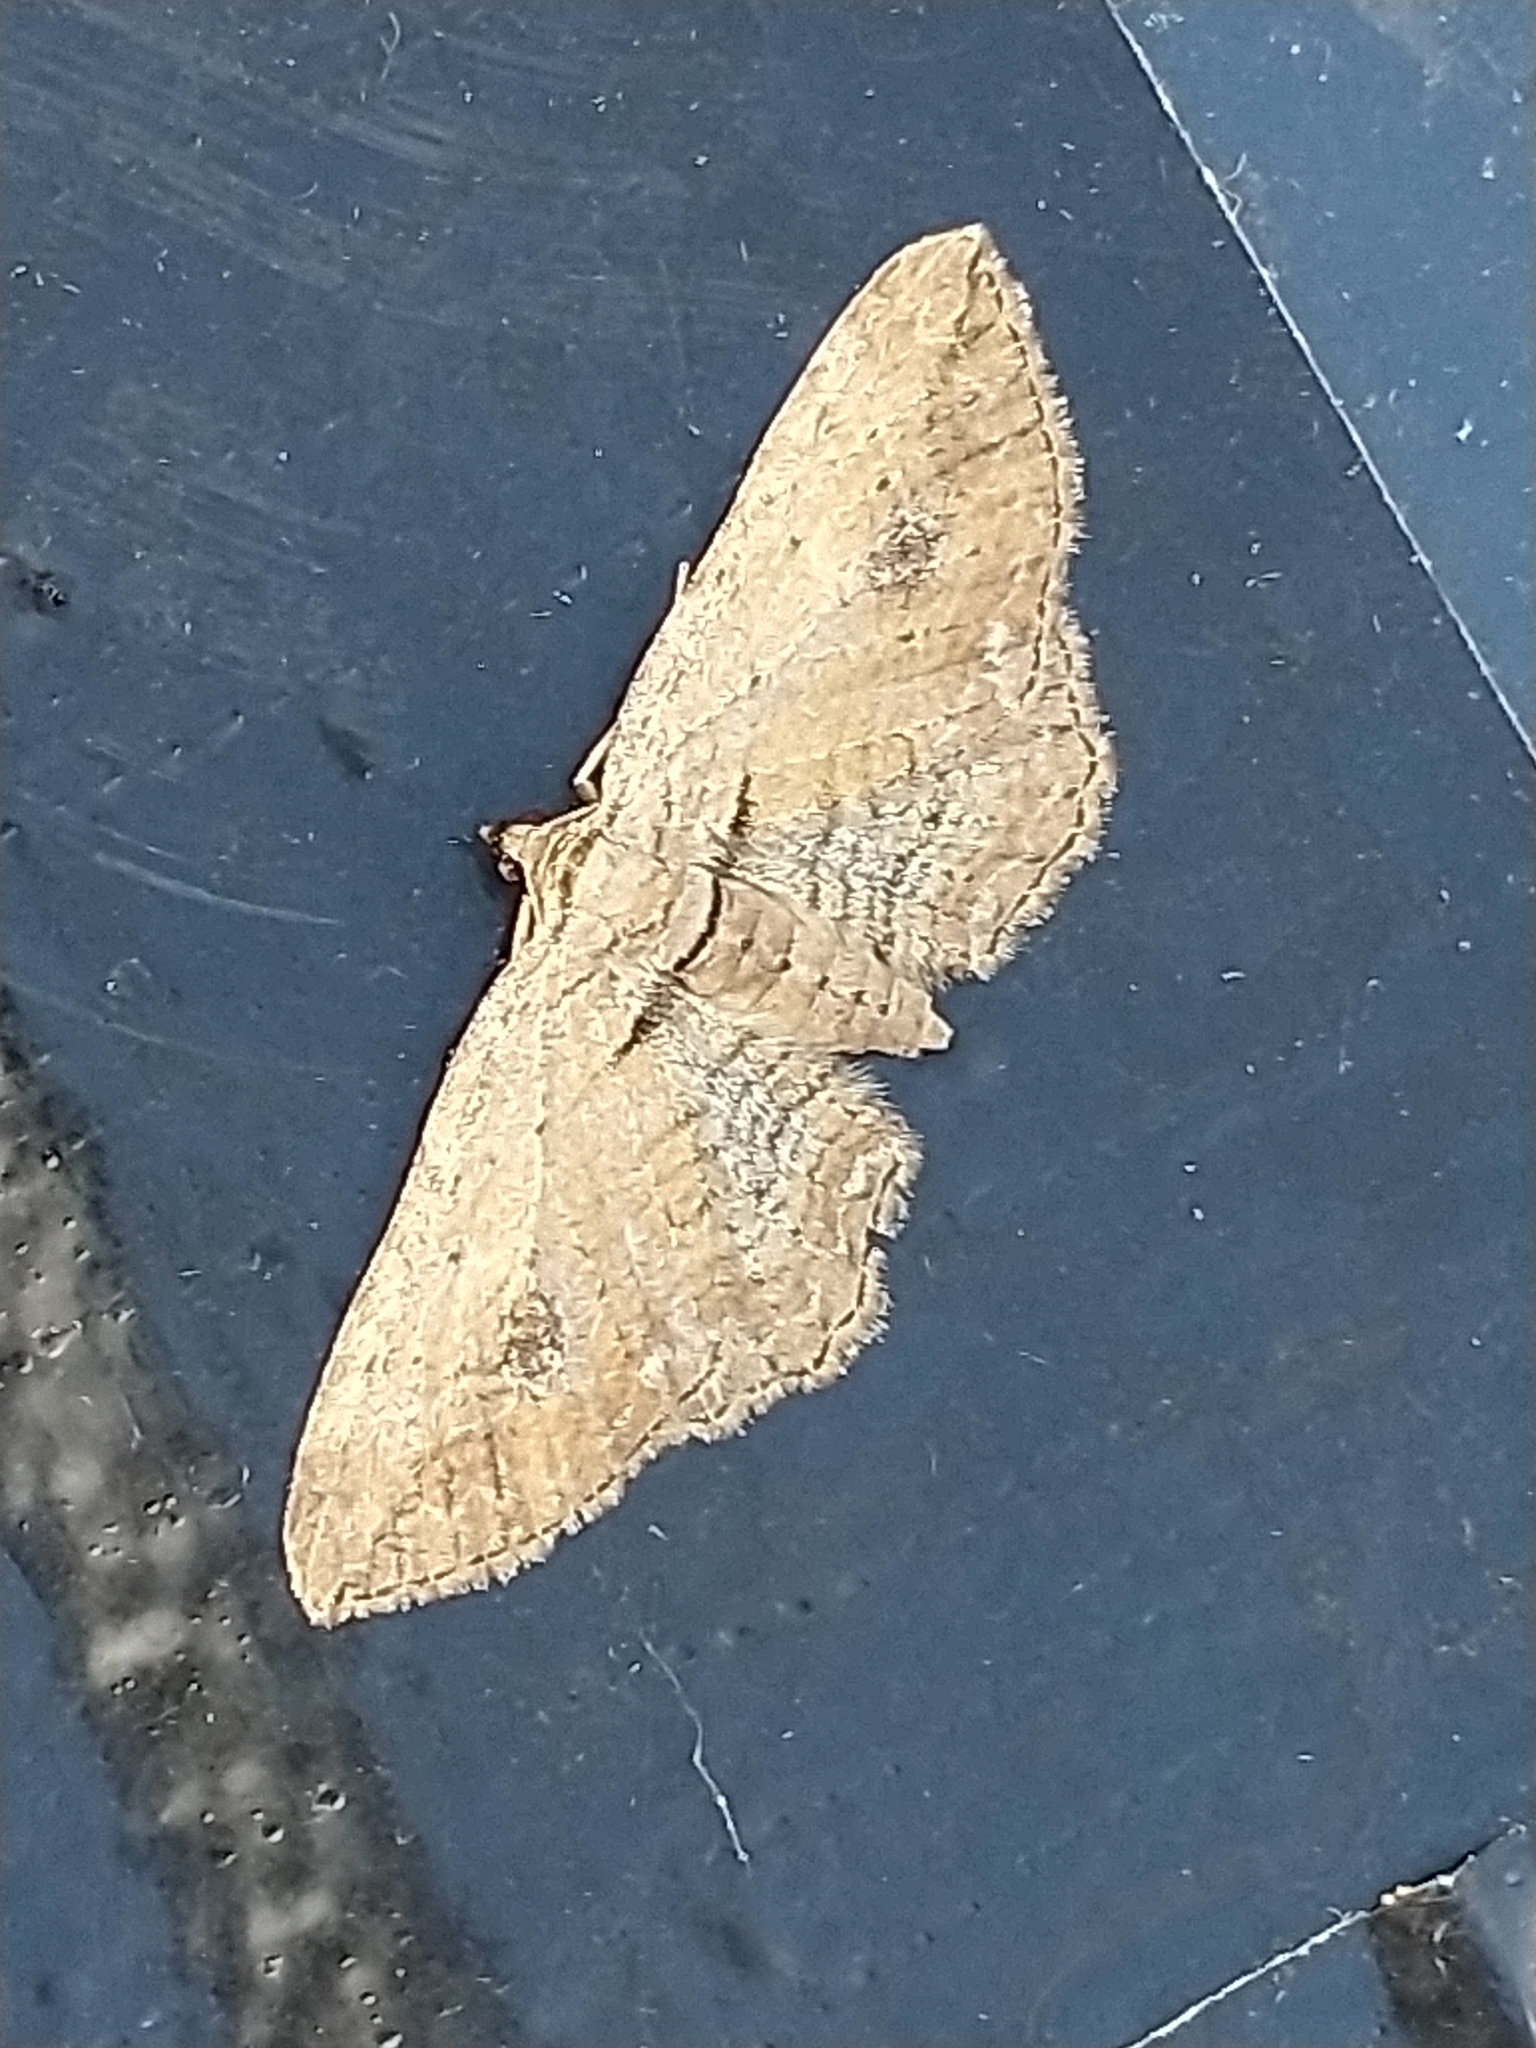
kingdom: Animalia
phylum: Arthropoda
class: Insecta
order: Lepidoptera
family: Geometridae
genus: Horisme
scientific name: Horisme tersata
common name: Fern
